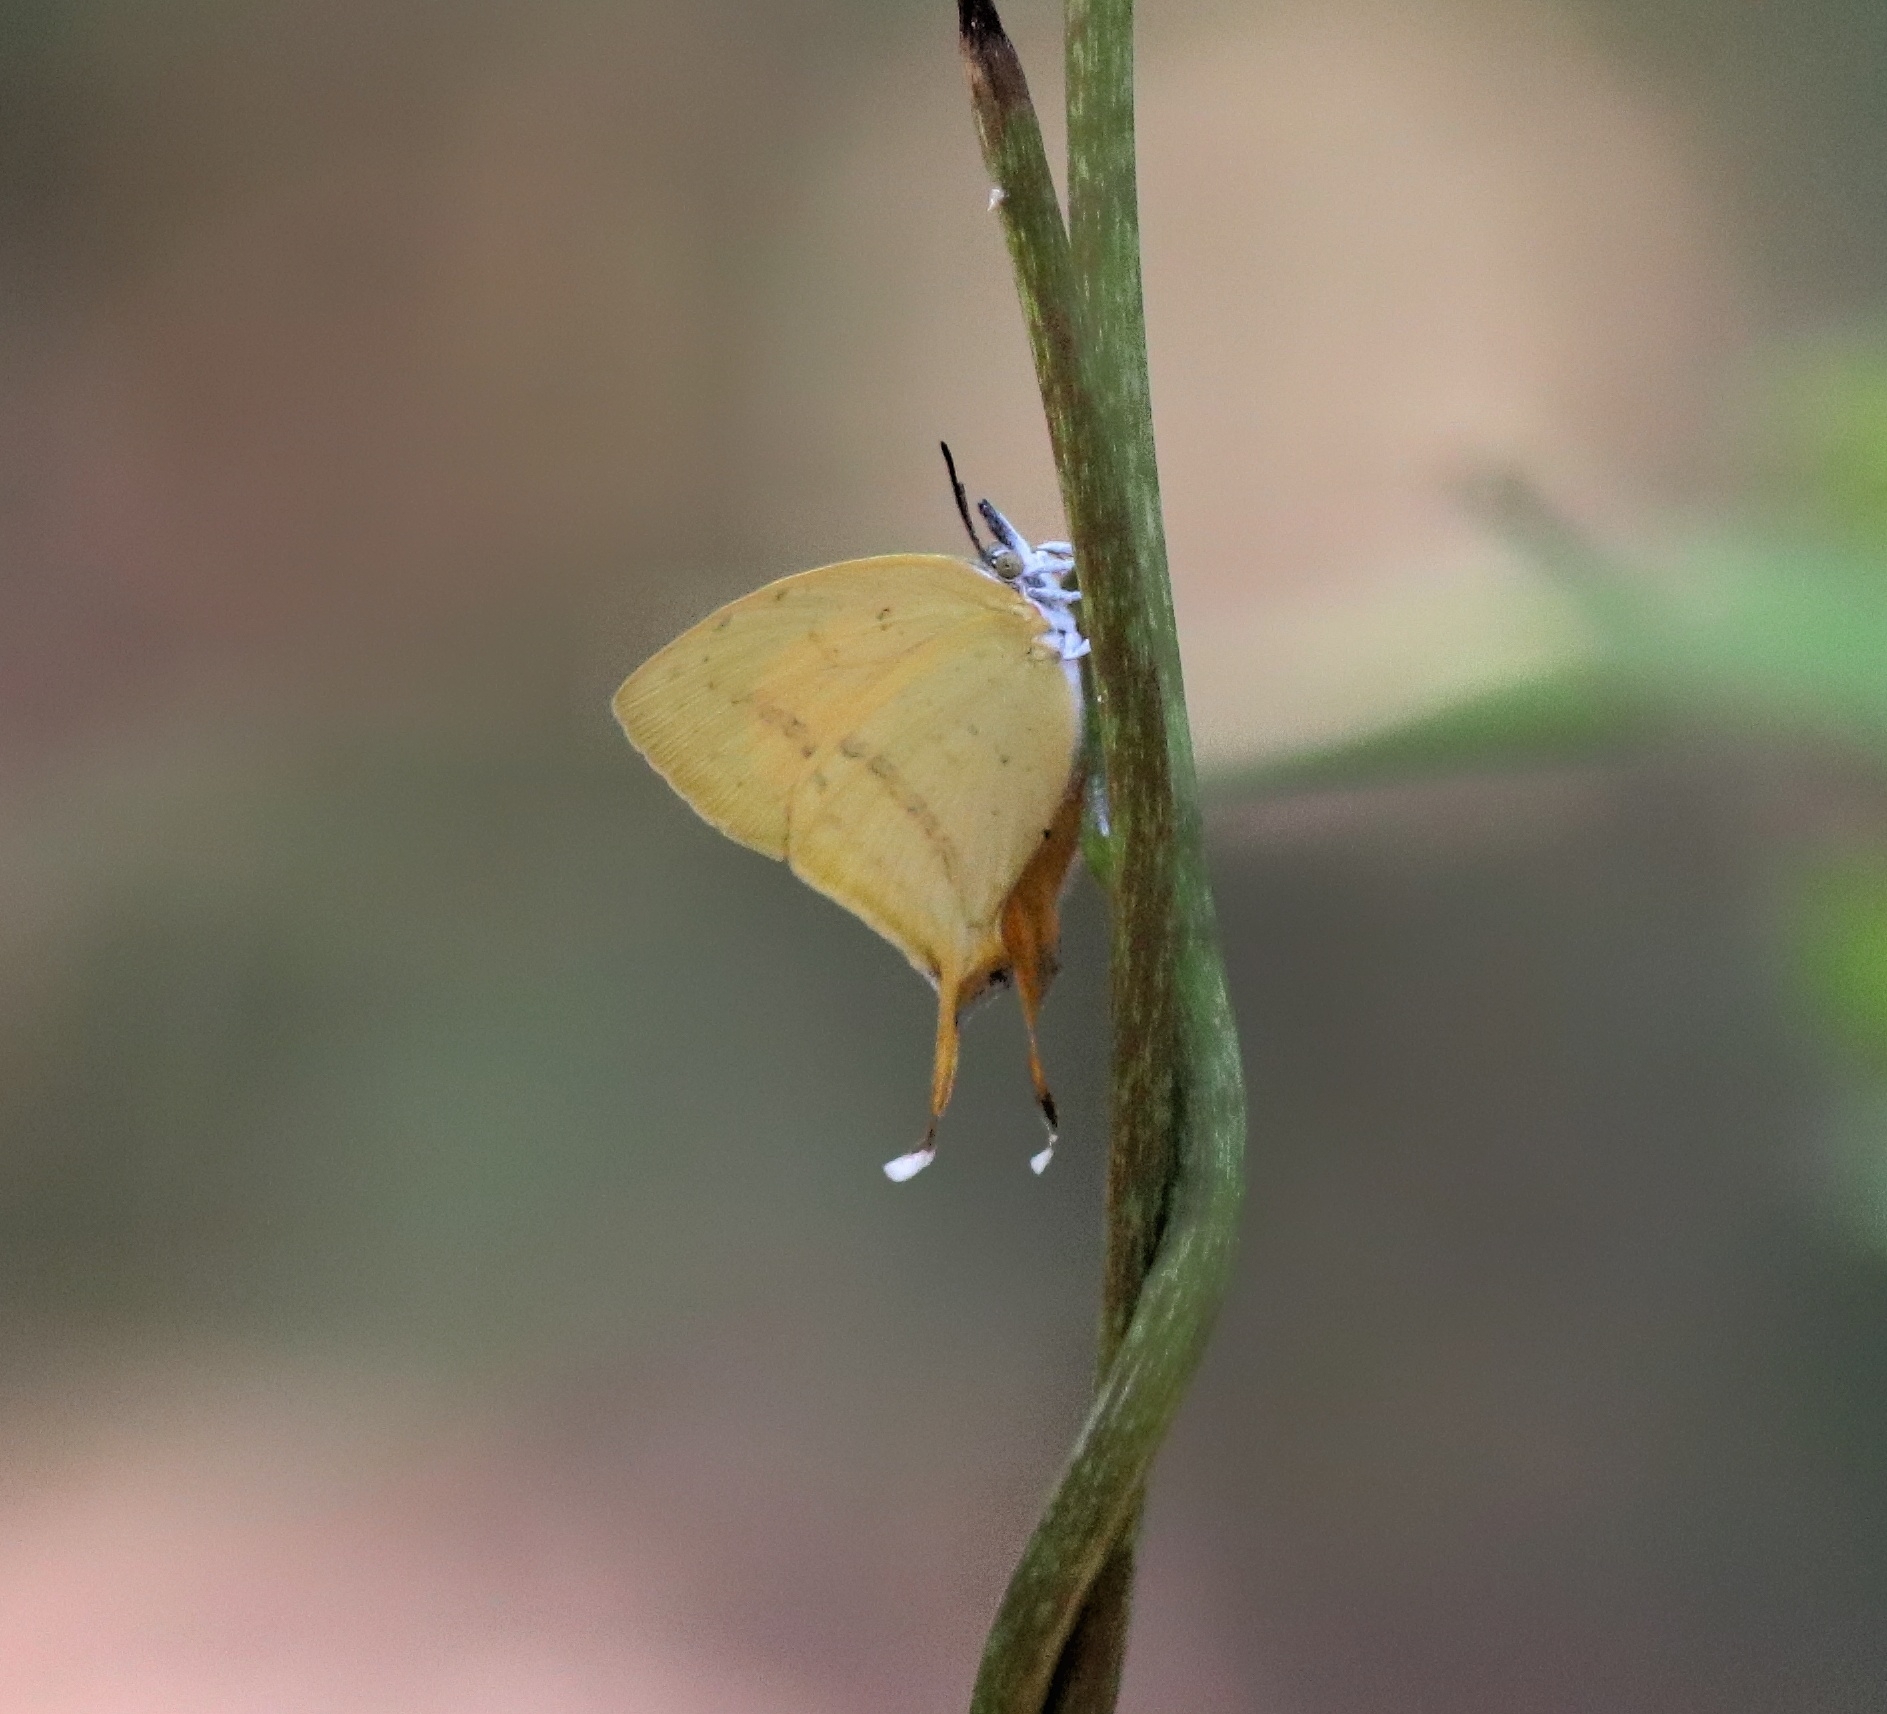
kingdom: Animalia
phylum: Arthropoda
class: Insecta
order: Lepidoptera
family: Lycaenidae
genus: Loxura
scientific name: Loxura atymnus
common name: Common yamfly
